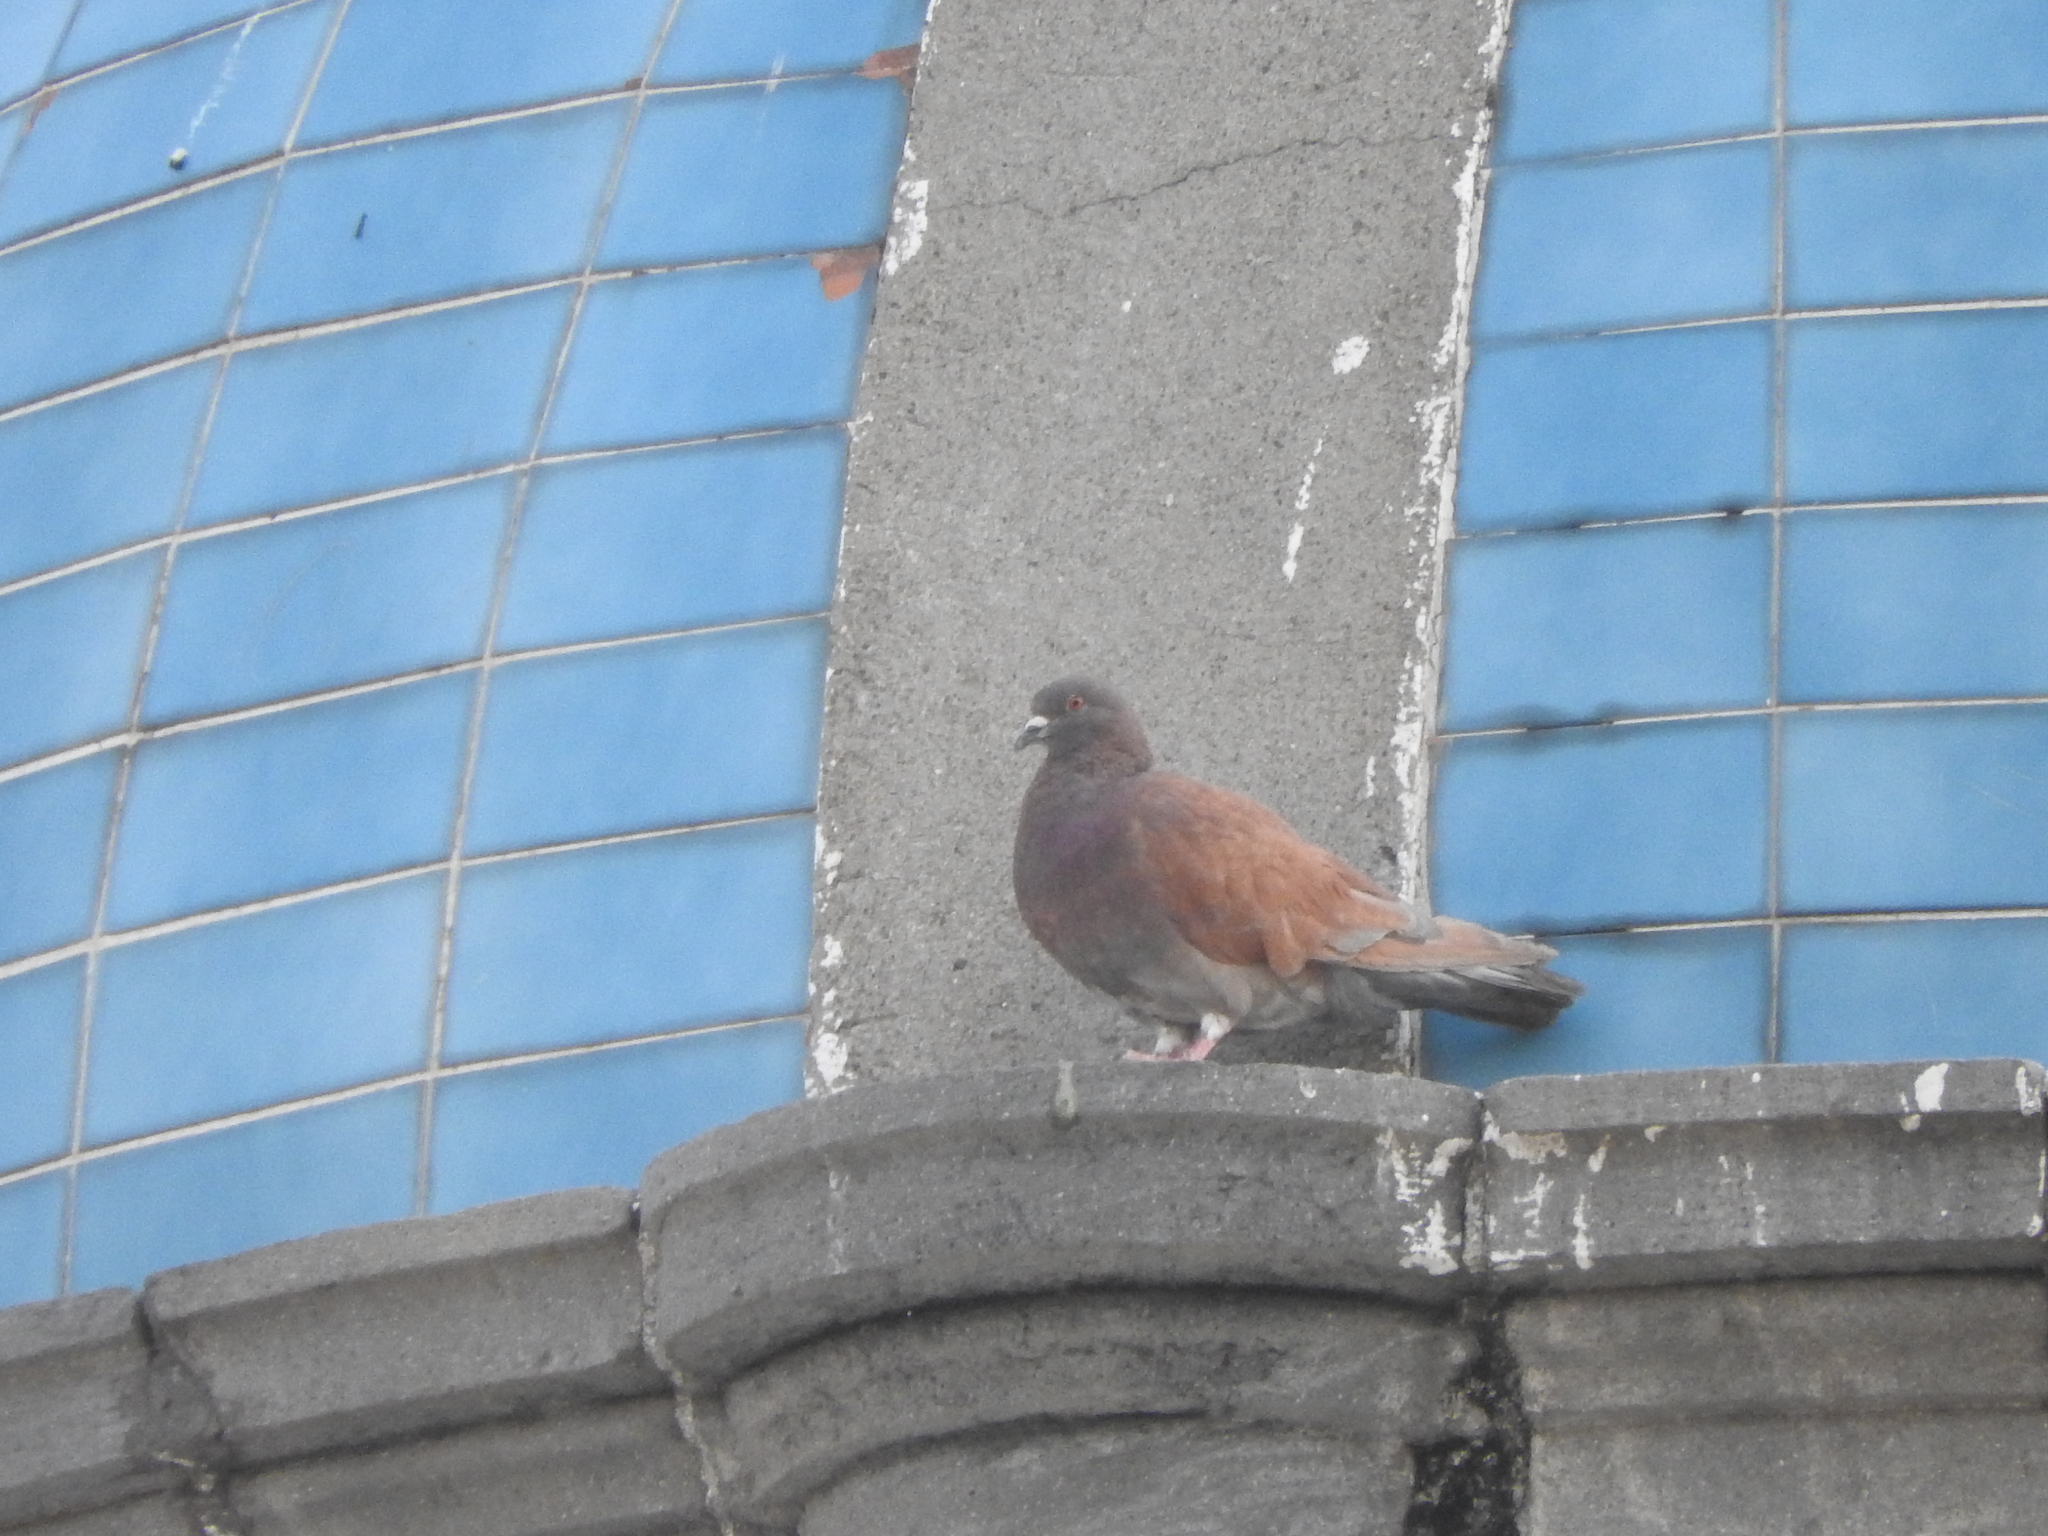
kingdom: Animalia
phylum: Chordata
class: Aves
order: Columbiformes
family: Columbidae
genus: Columba
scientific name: Columba livia
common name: Rock pigeon
